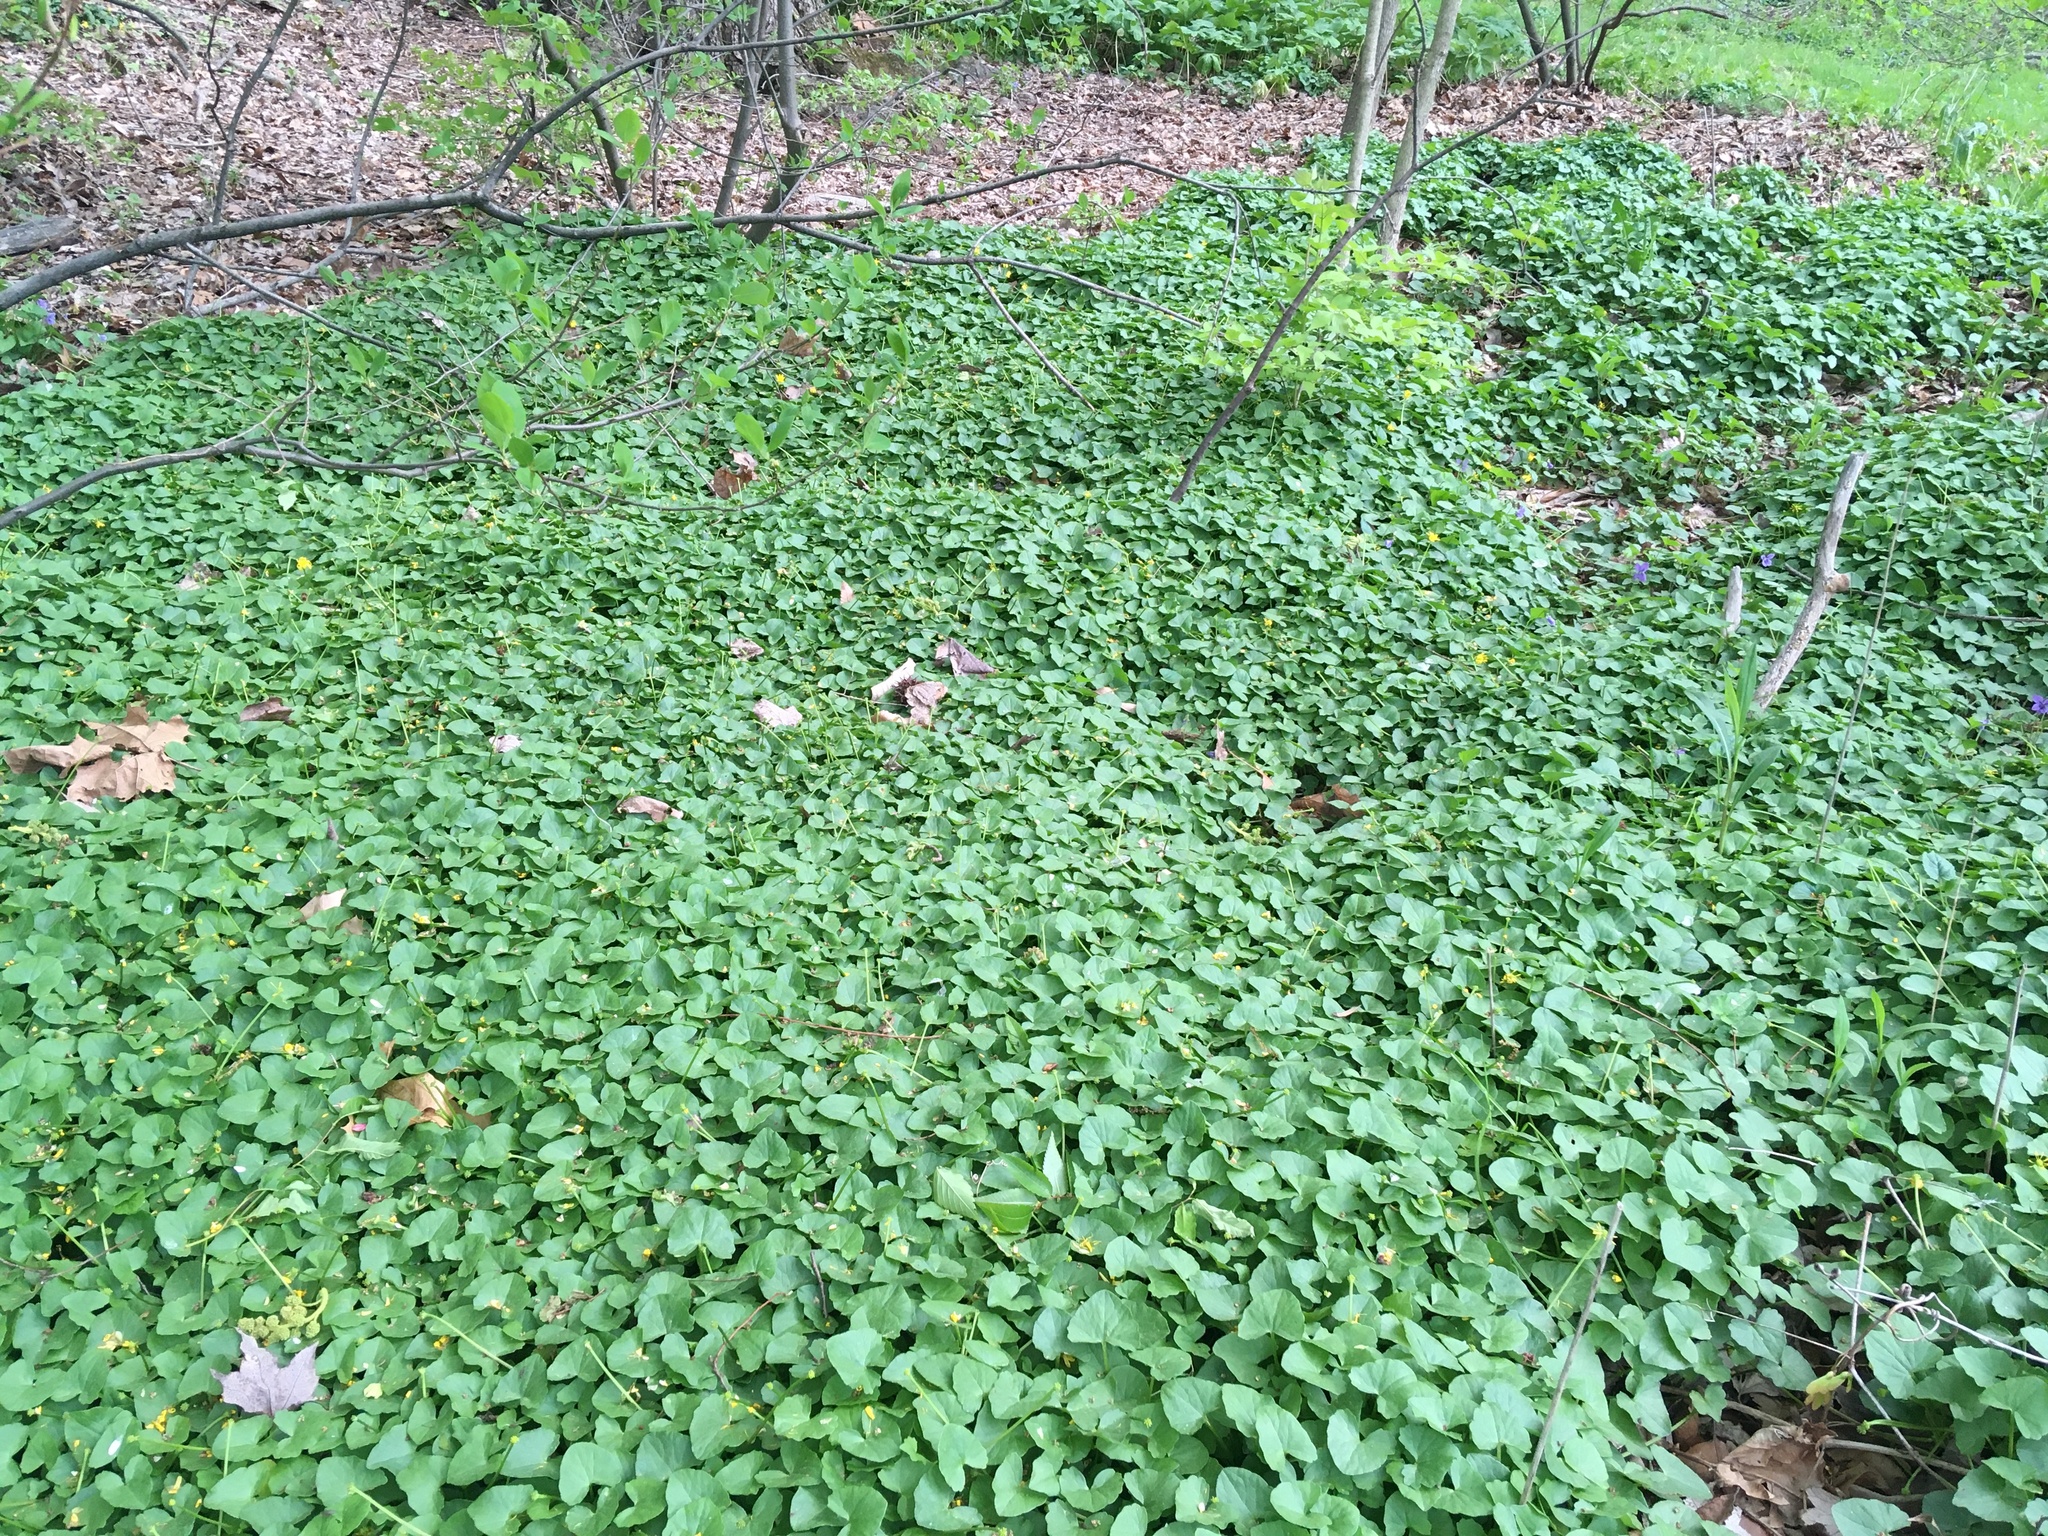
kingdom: Plantae
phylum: Tracheophyta
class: Magnoliopsida
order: Ranunculales
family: Ranunculaceae
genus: Ficaria
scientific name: Ficaria verna
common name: Lesser celandine
